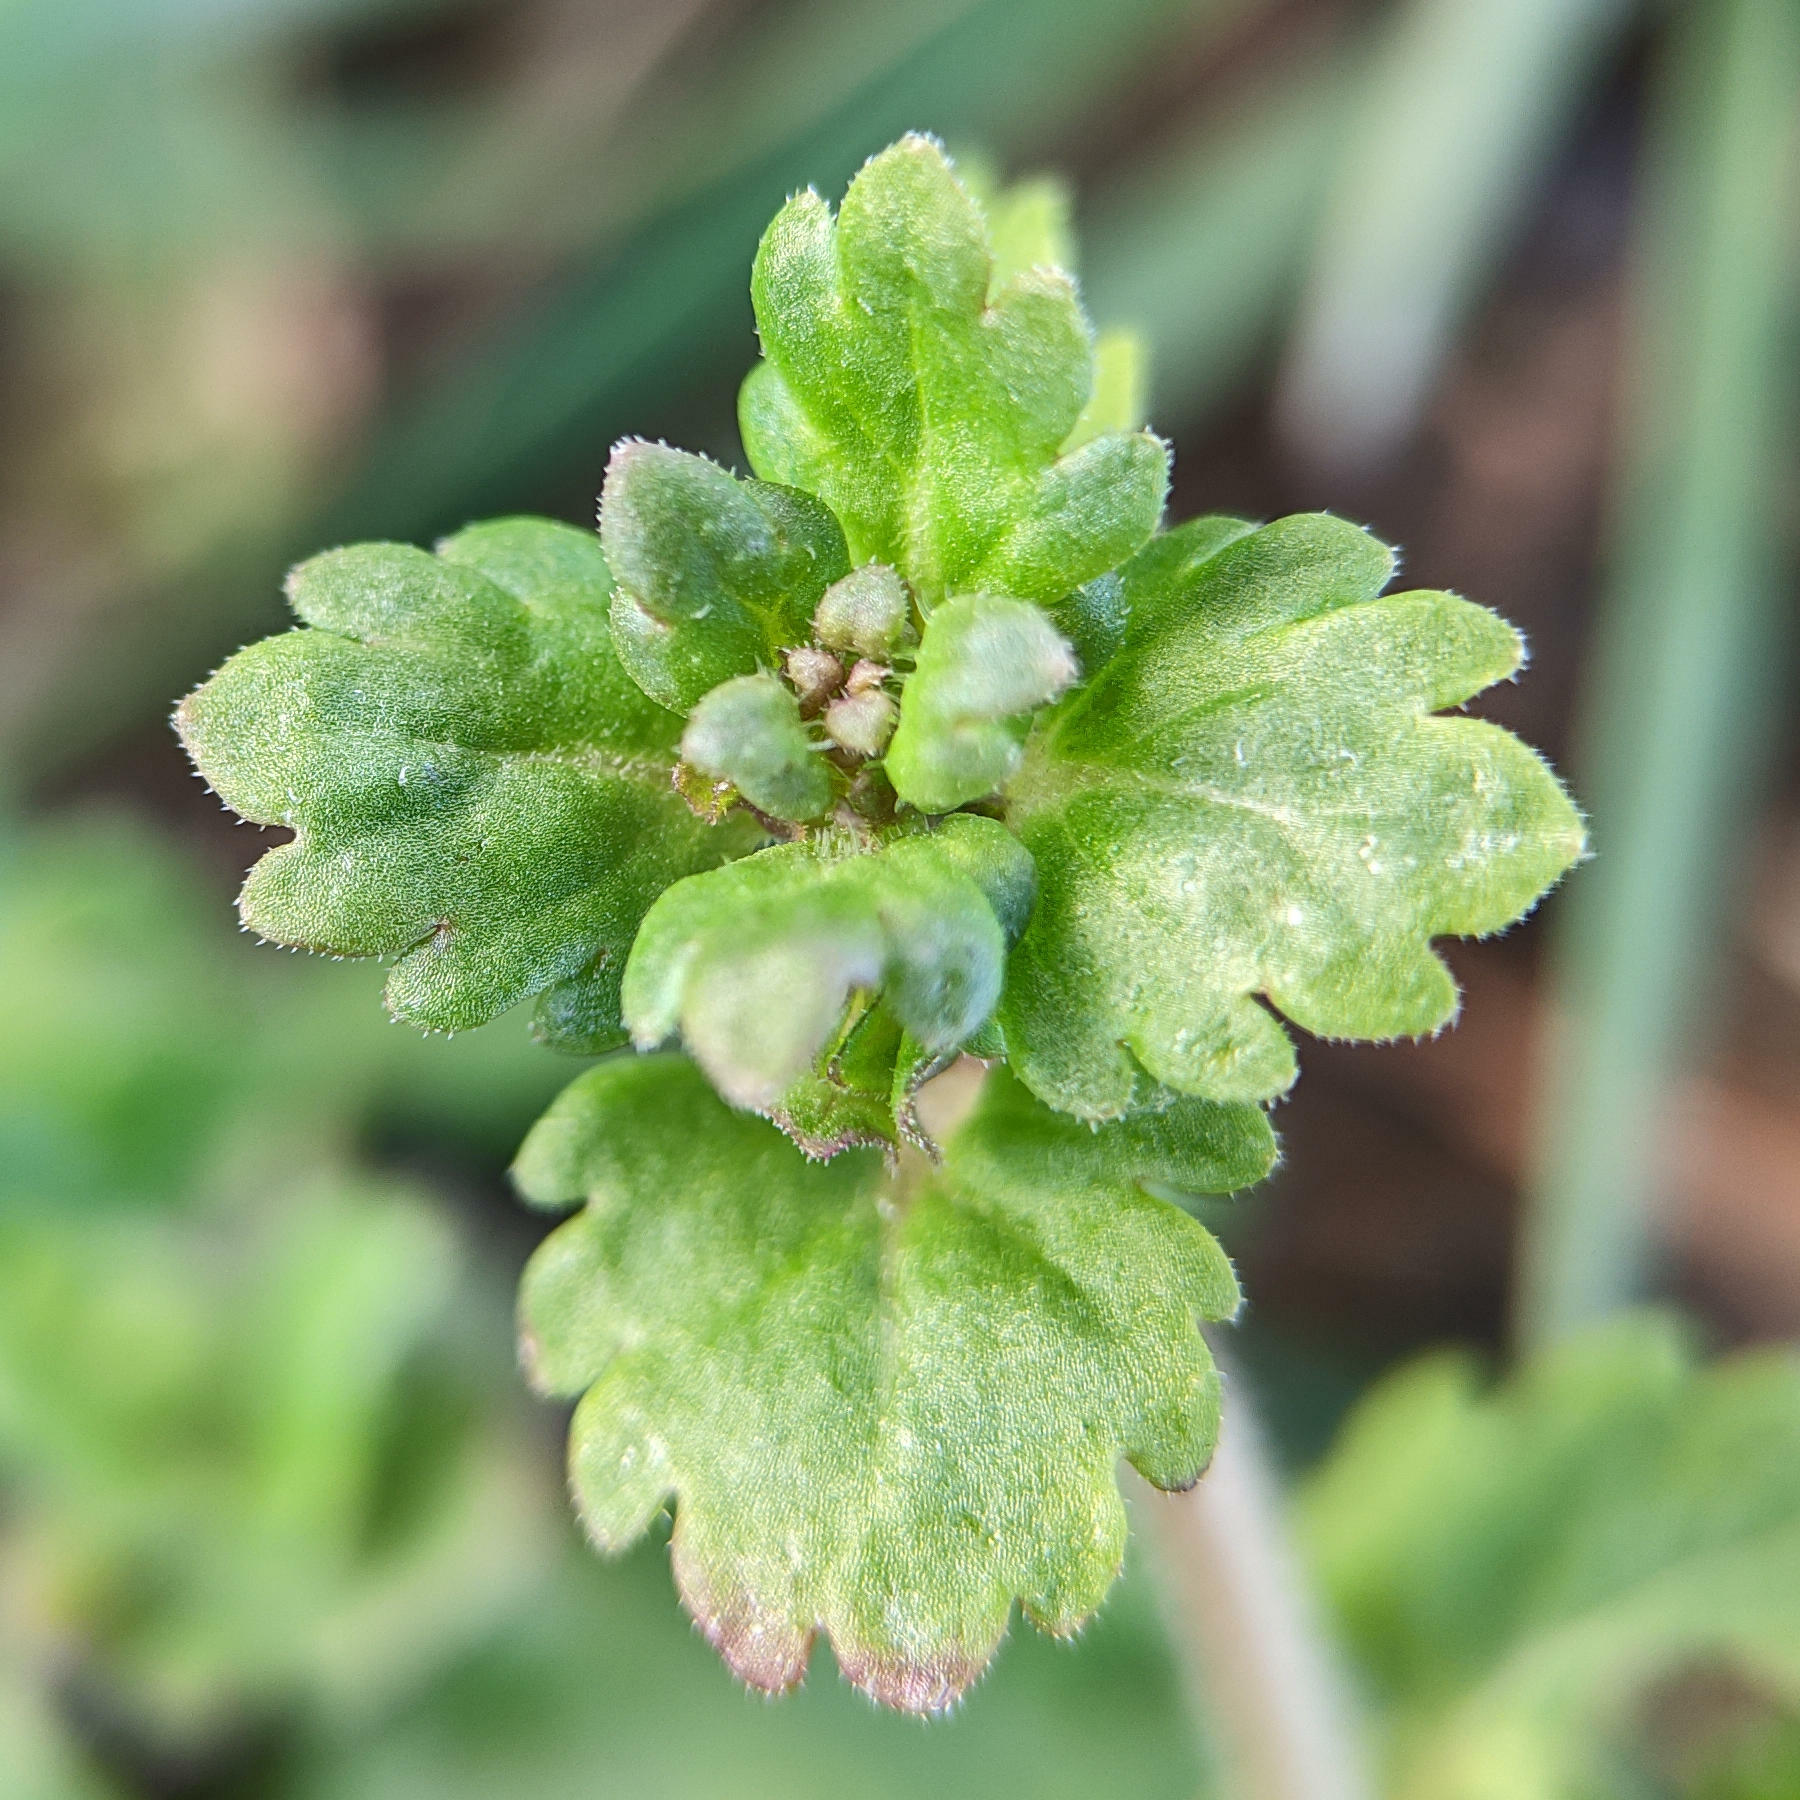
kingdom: Plantae
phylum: Tracheophyta
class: Magnoliopsida
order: Lamiales
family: Plantaginaceae
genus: Veronica
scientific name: Veronica persica
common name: Common field-speedwell
